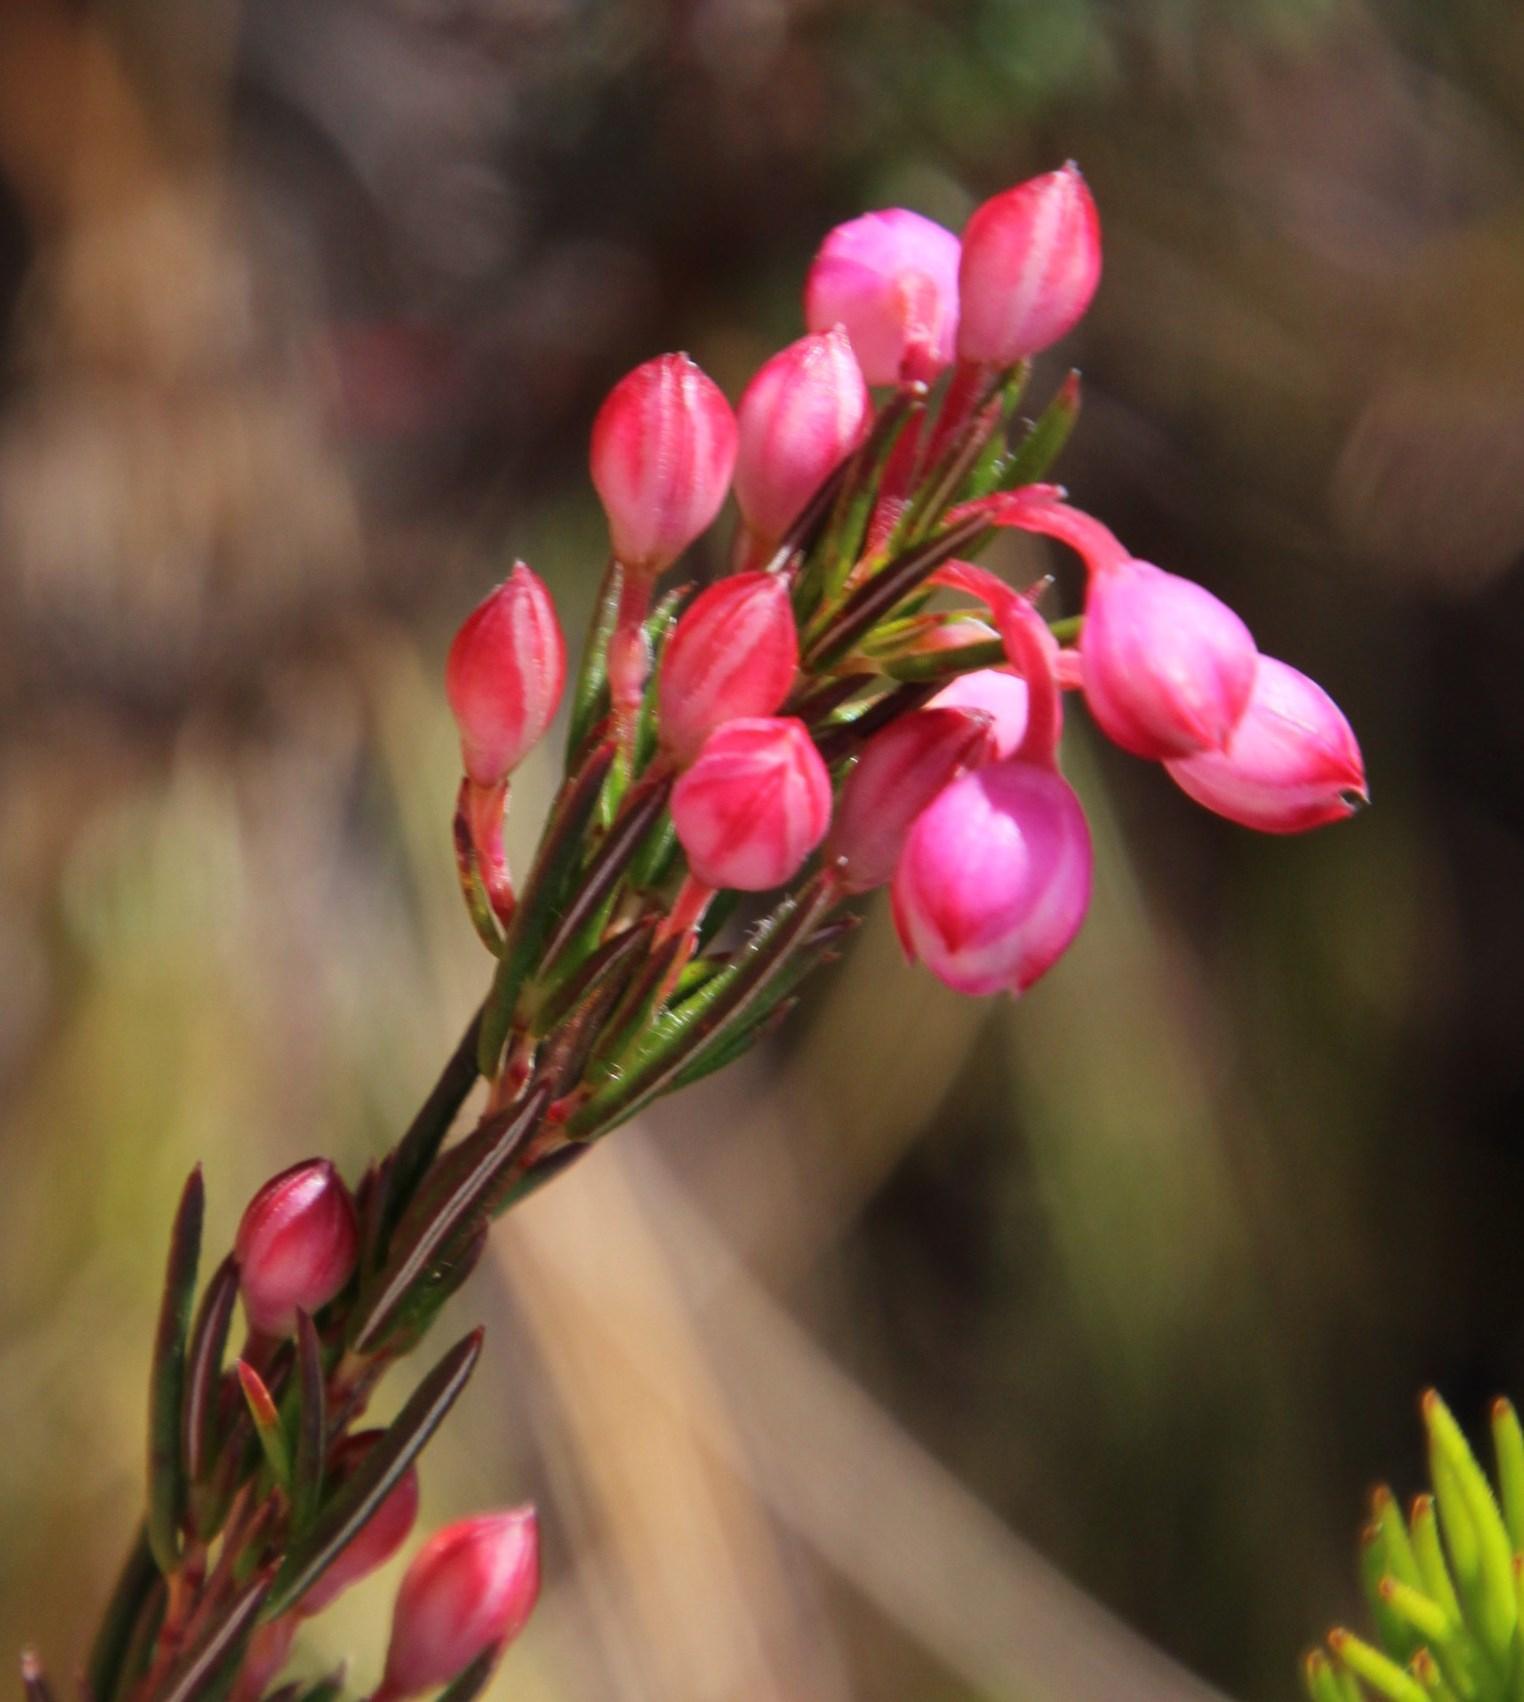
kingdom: Plantae
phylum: Tracheophyta
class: Magnoliopsida
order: Ericales
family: Ericaceae
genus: Erica
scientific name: Erica holosericea
